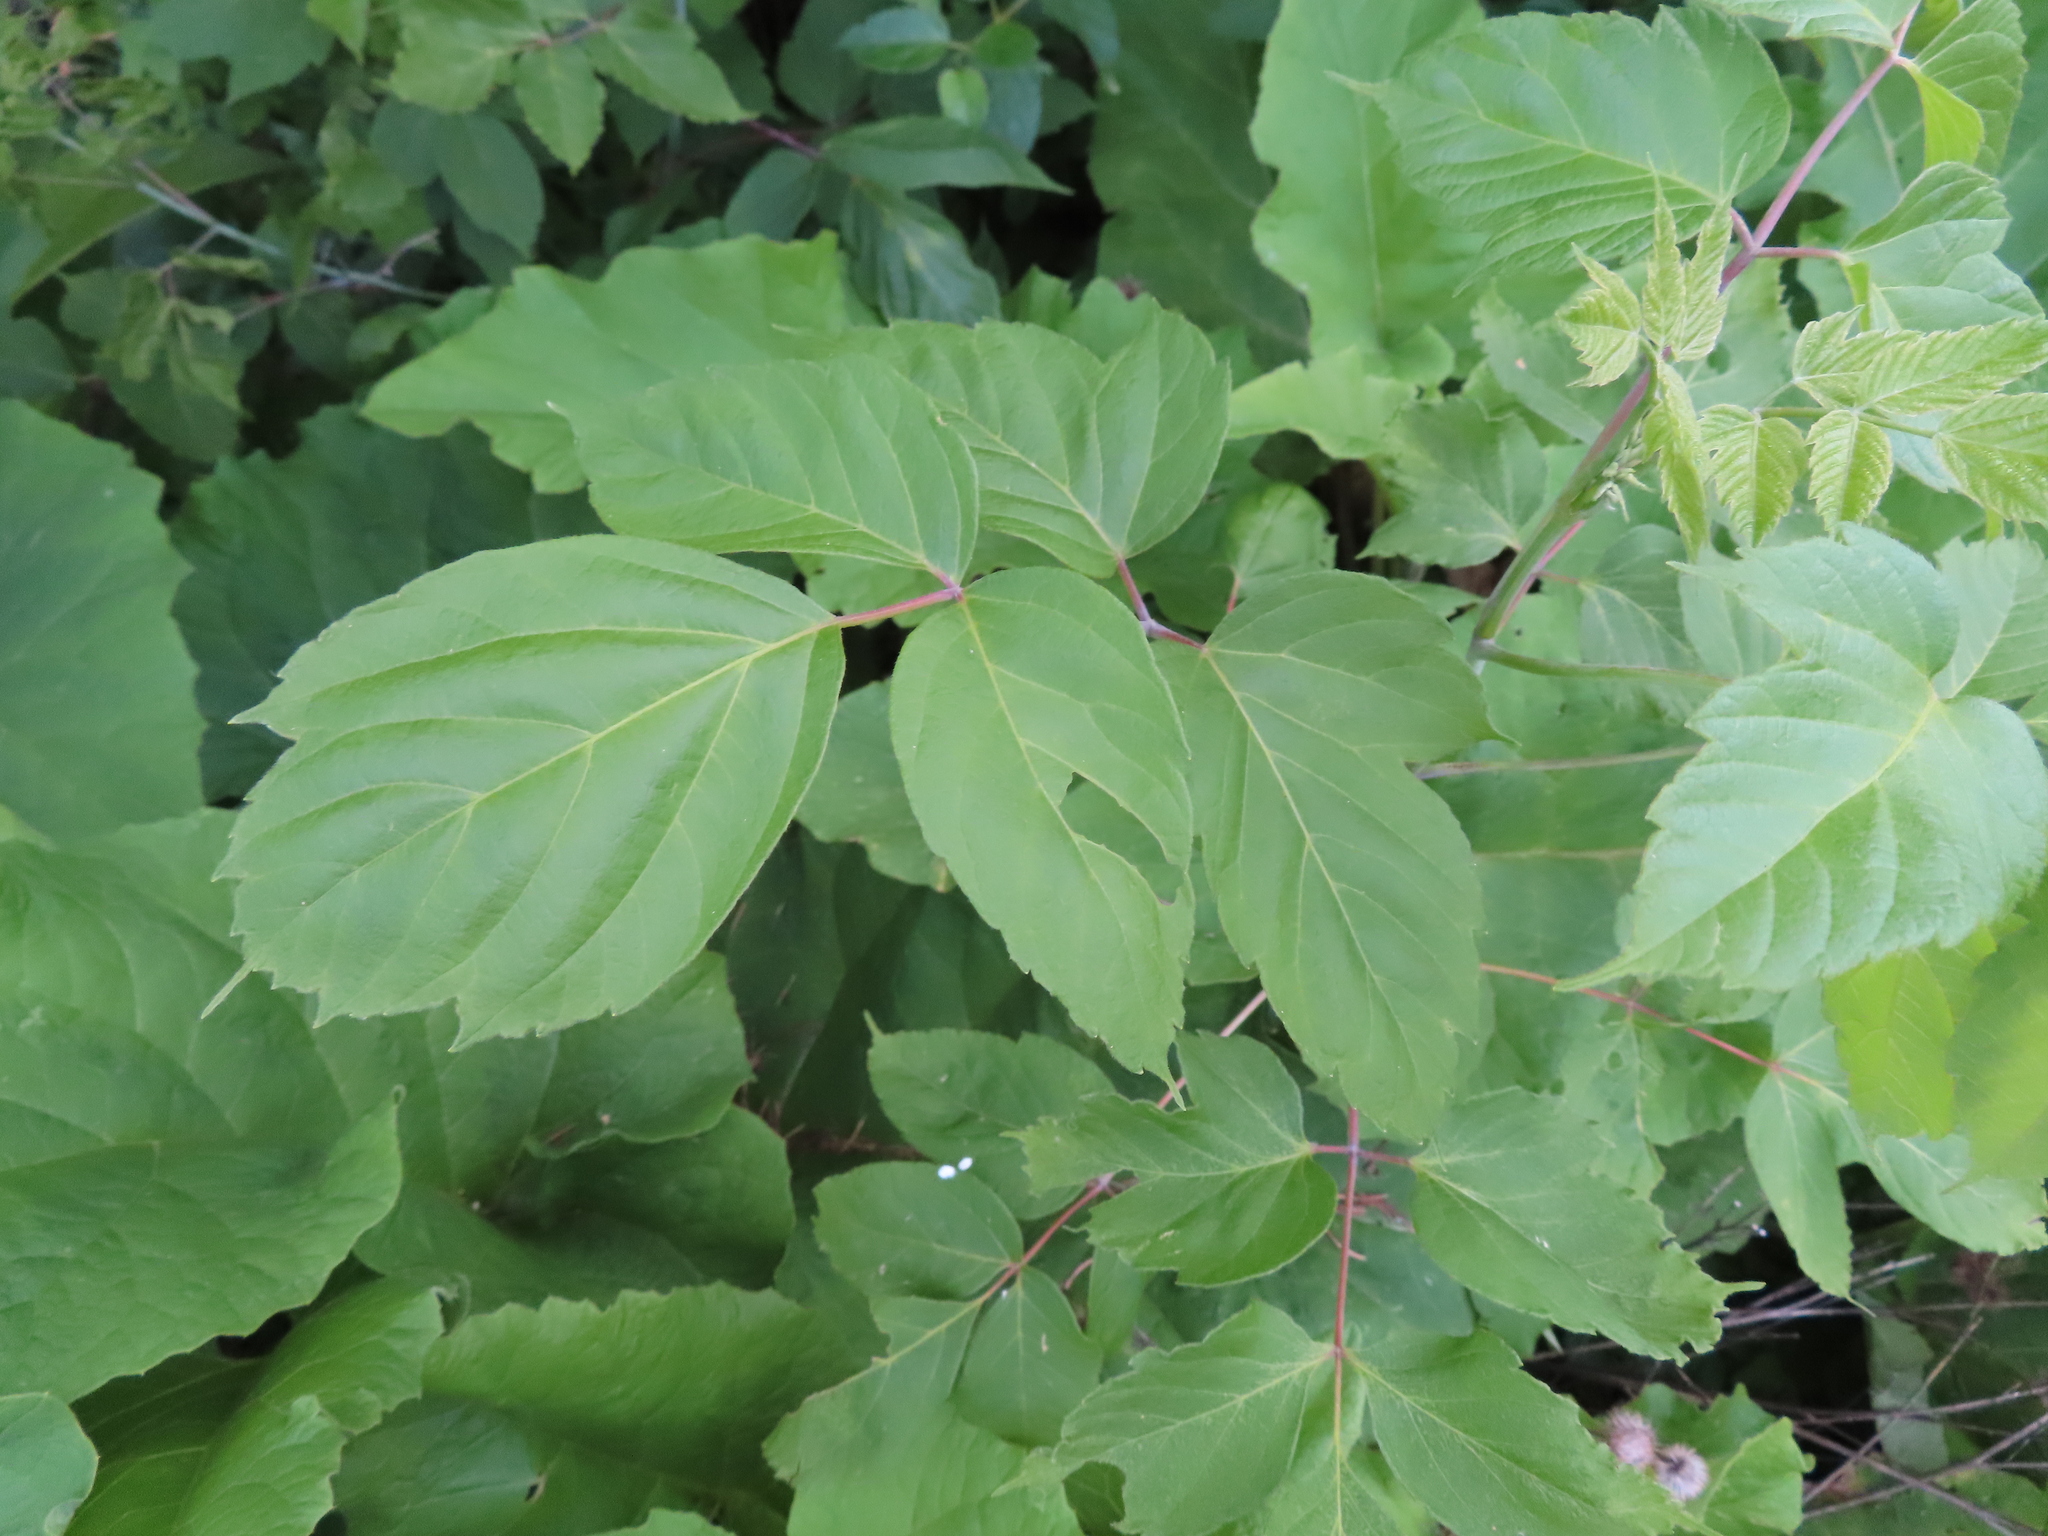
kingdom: Plantae
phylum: Tracheophyta
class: Magnoliopsida
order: Sapindales
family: Sapindaceae
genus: Acer
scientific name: Acer negundo
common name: Ashleaf maple
